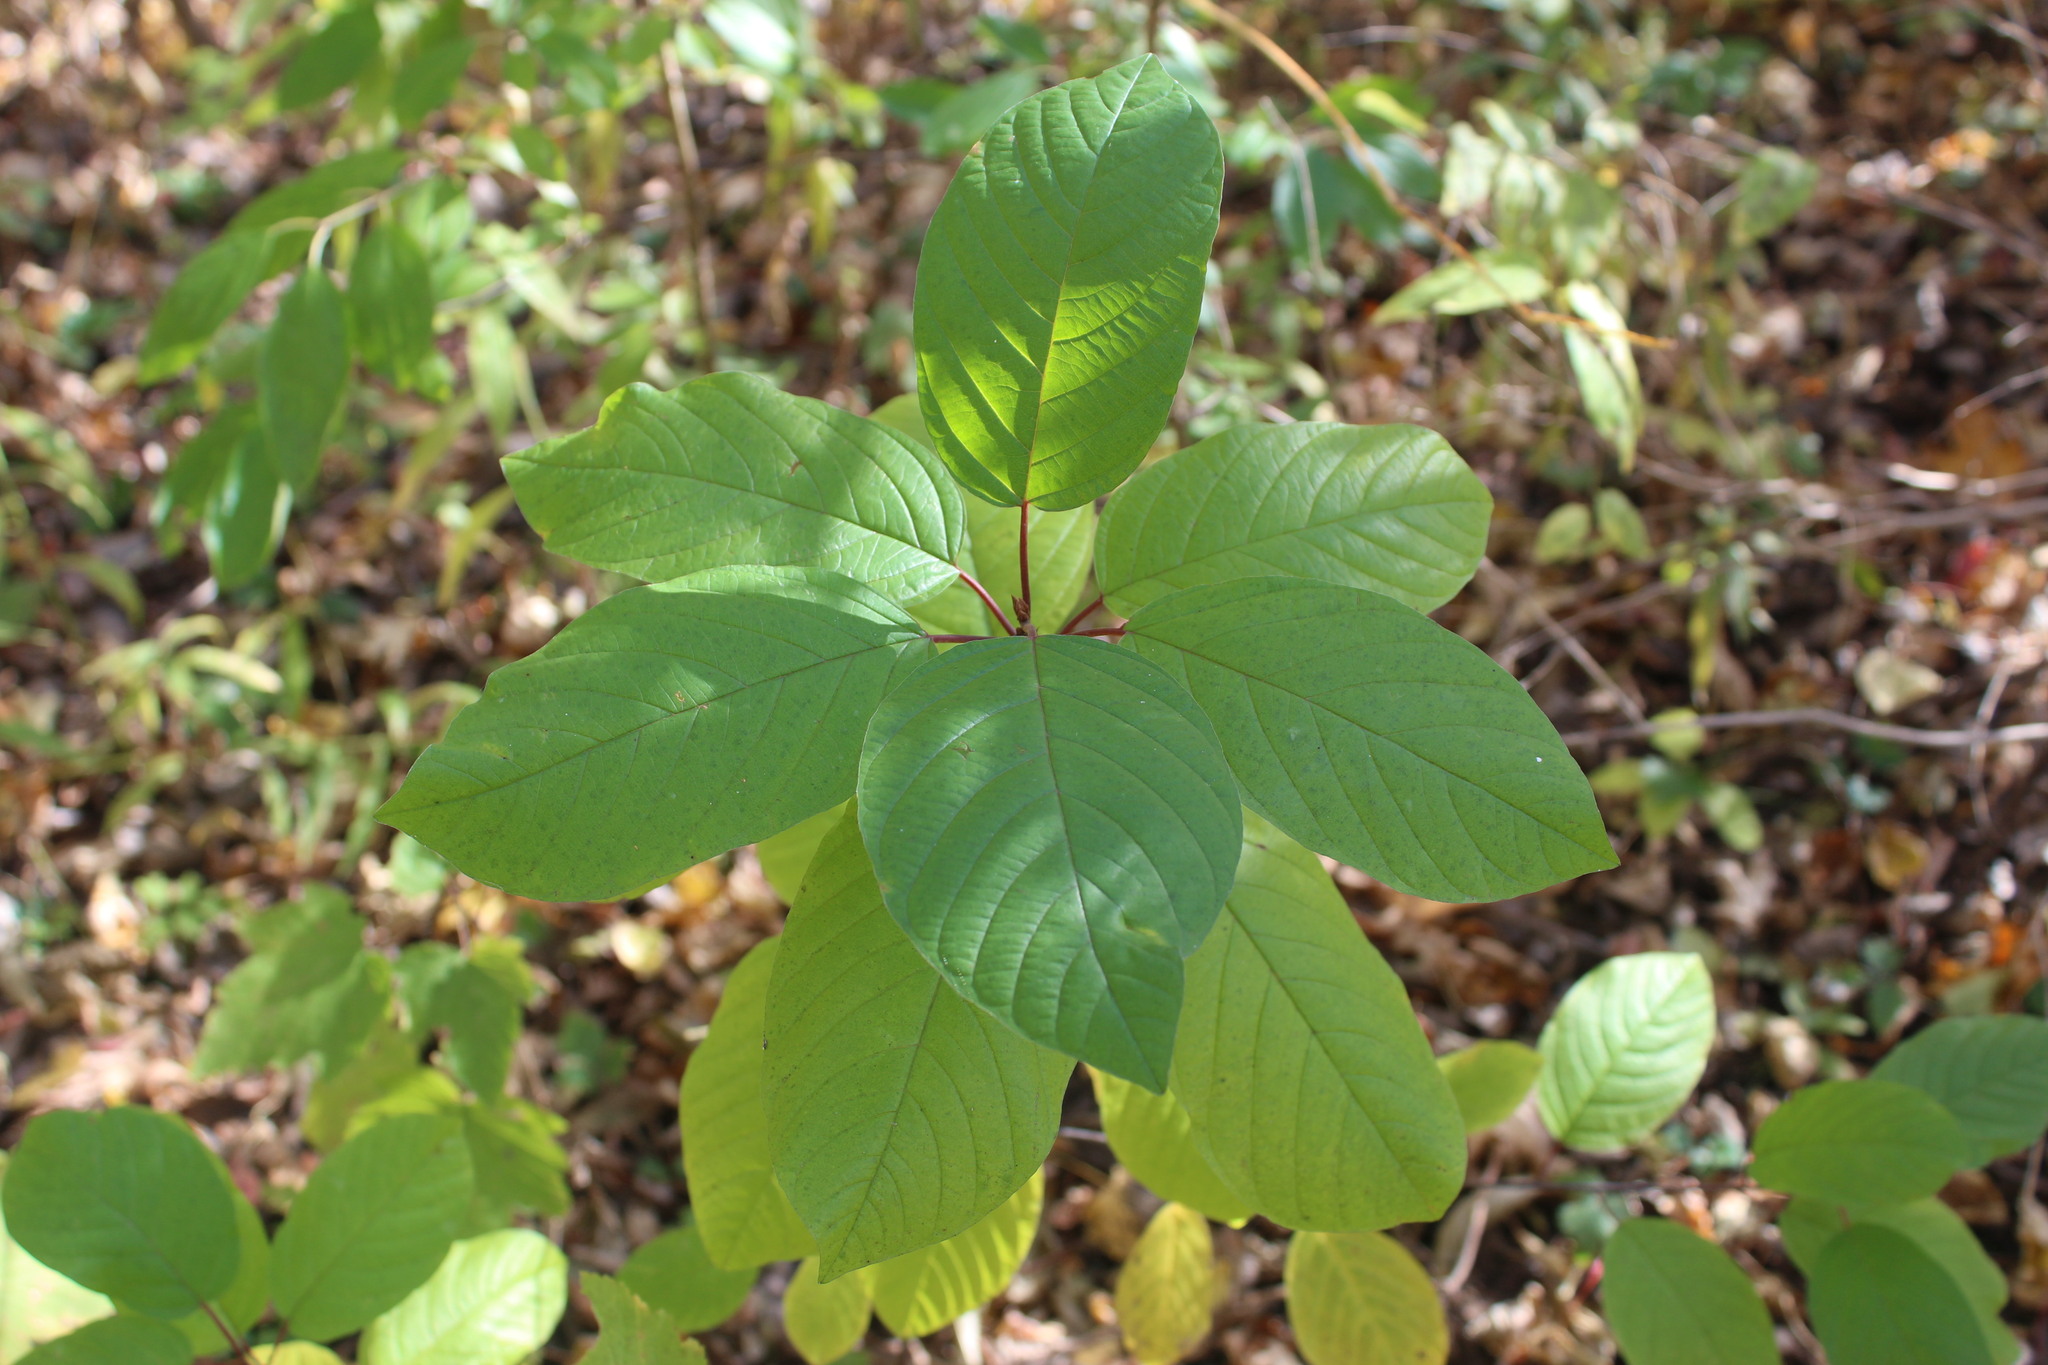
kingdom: Plantae
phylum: Tracheophyta
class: Magnoliopsida
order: Rosales
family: Rhamnaceae
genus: Frangula
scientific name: Frangula alnus
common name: Alder buckthorn
